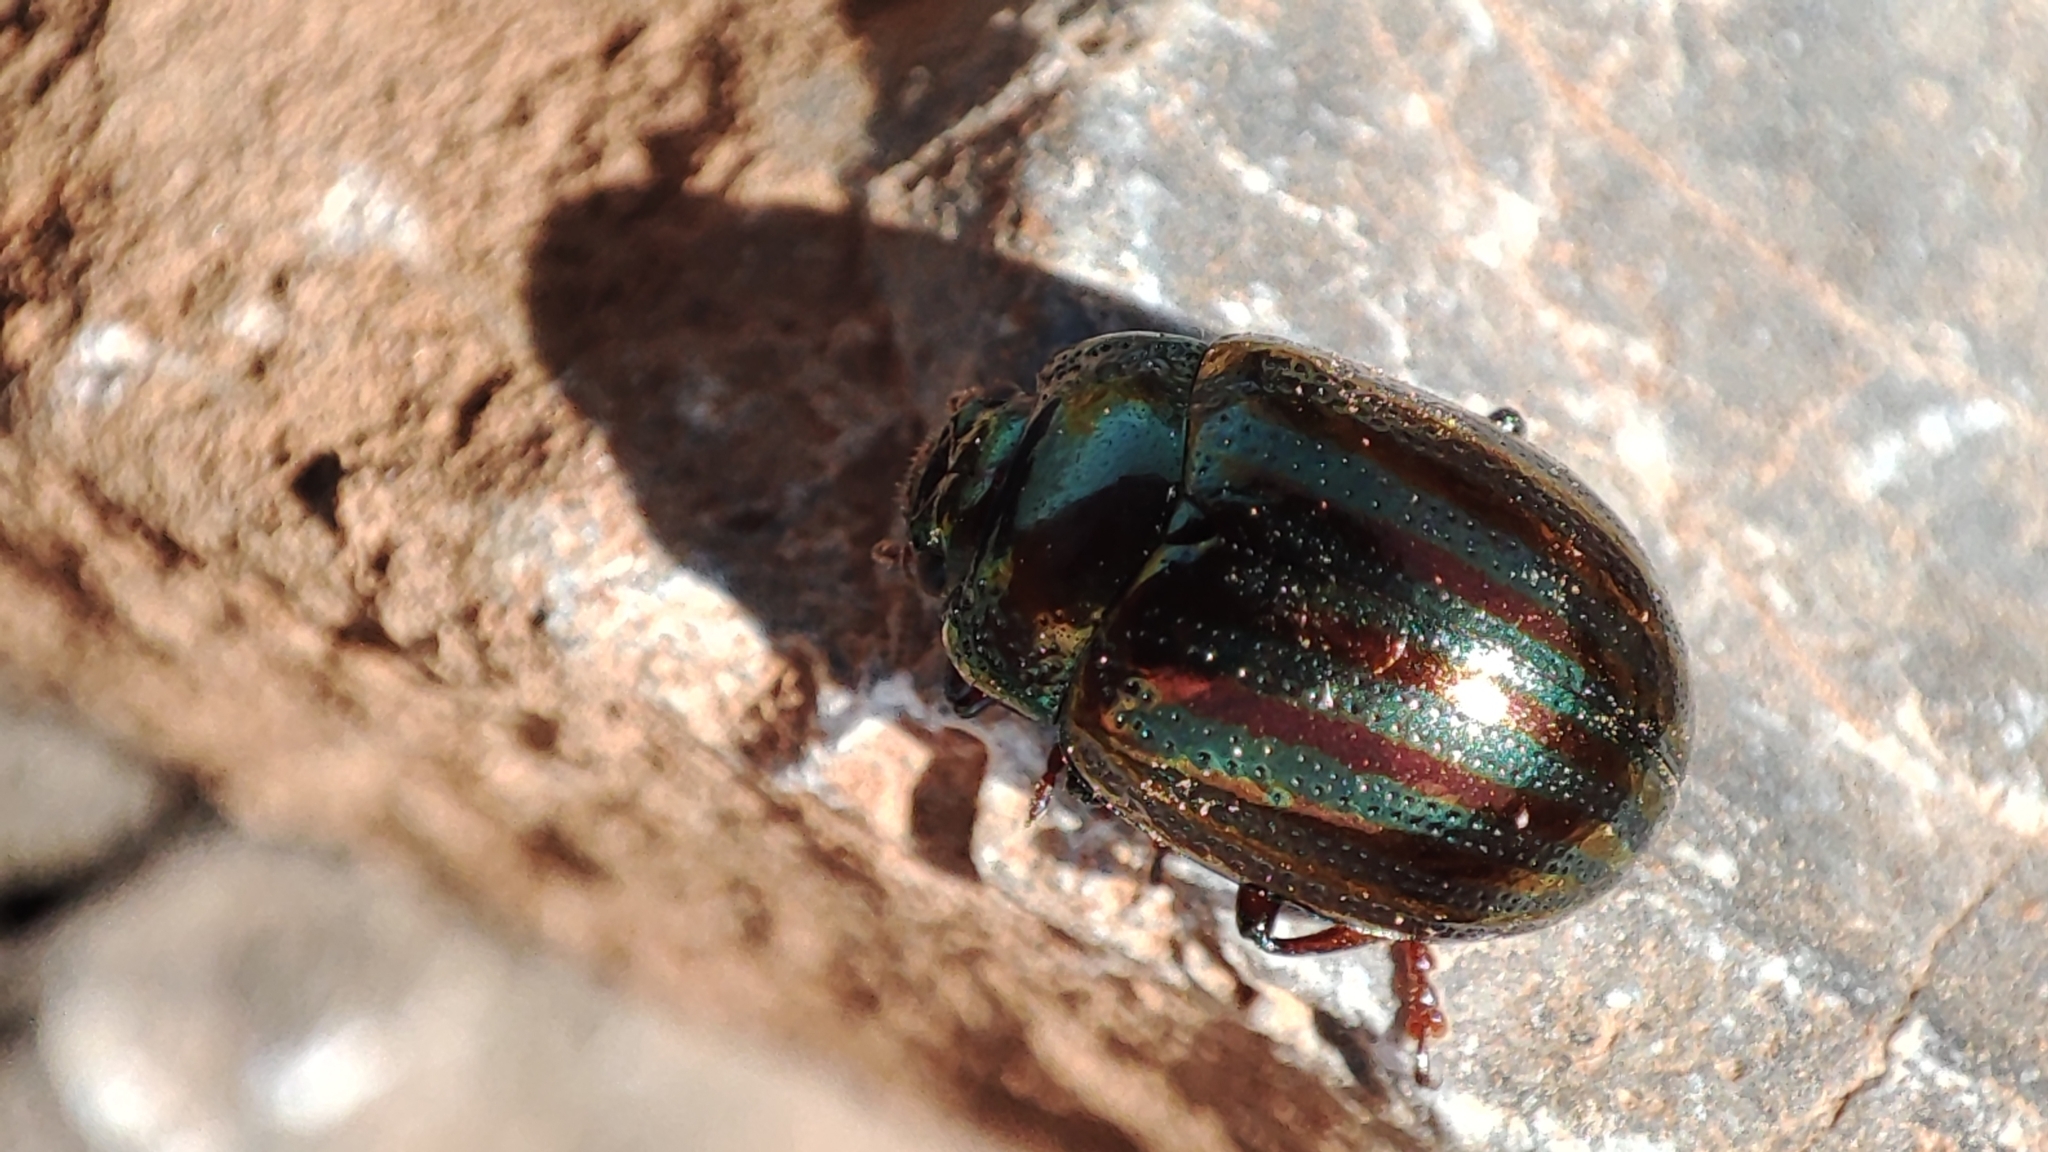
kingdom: Animalia
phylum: Arthropoda
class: Insecta
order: Coleoptera
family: Chrysomelidae
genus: Chrysolina
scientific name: Chrysolina americana
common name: Rosemary beetle
